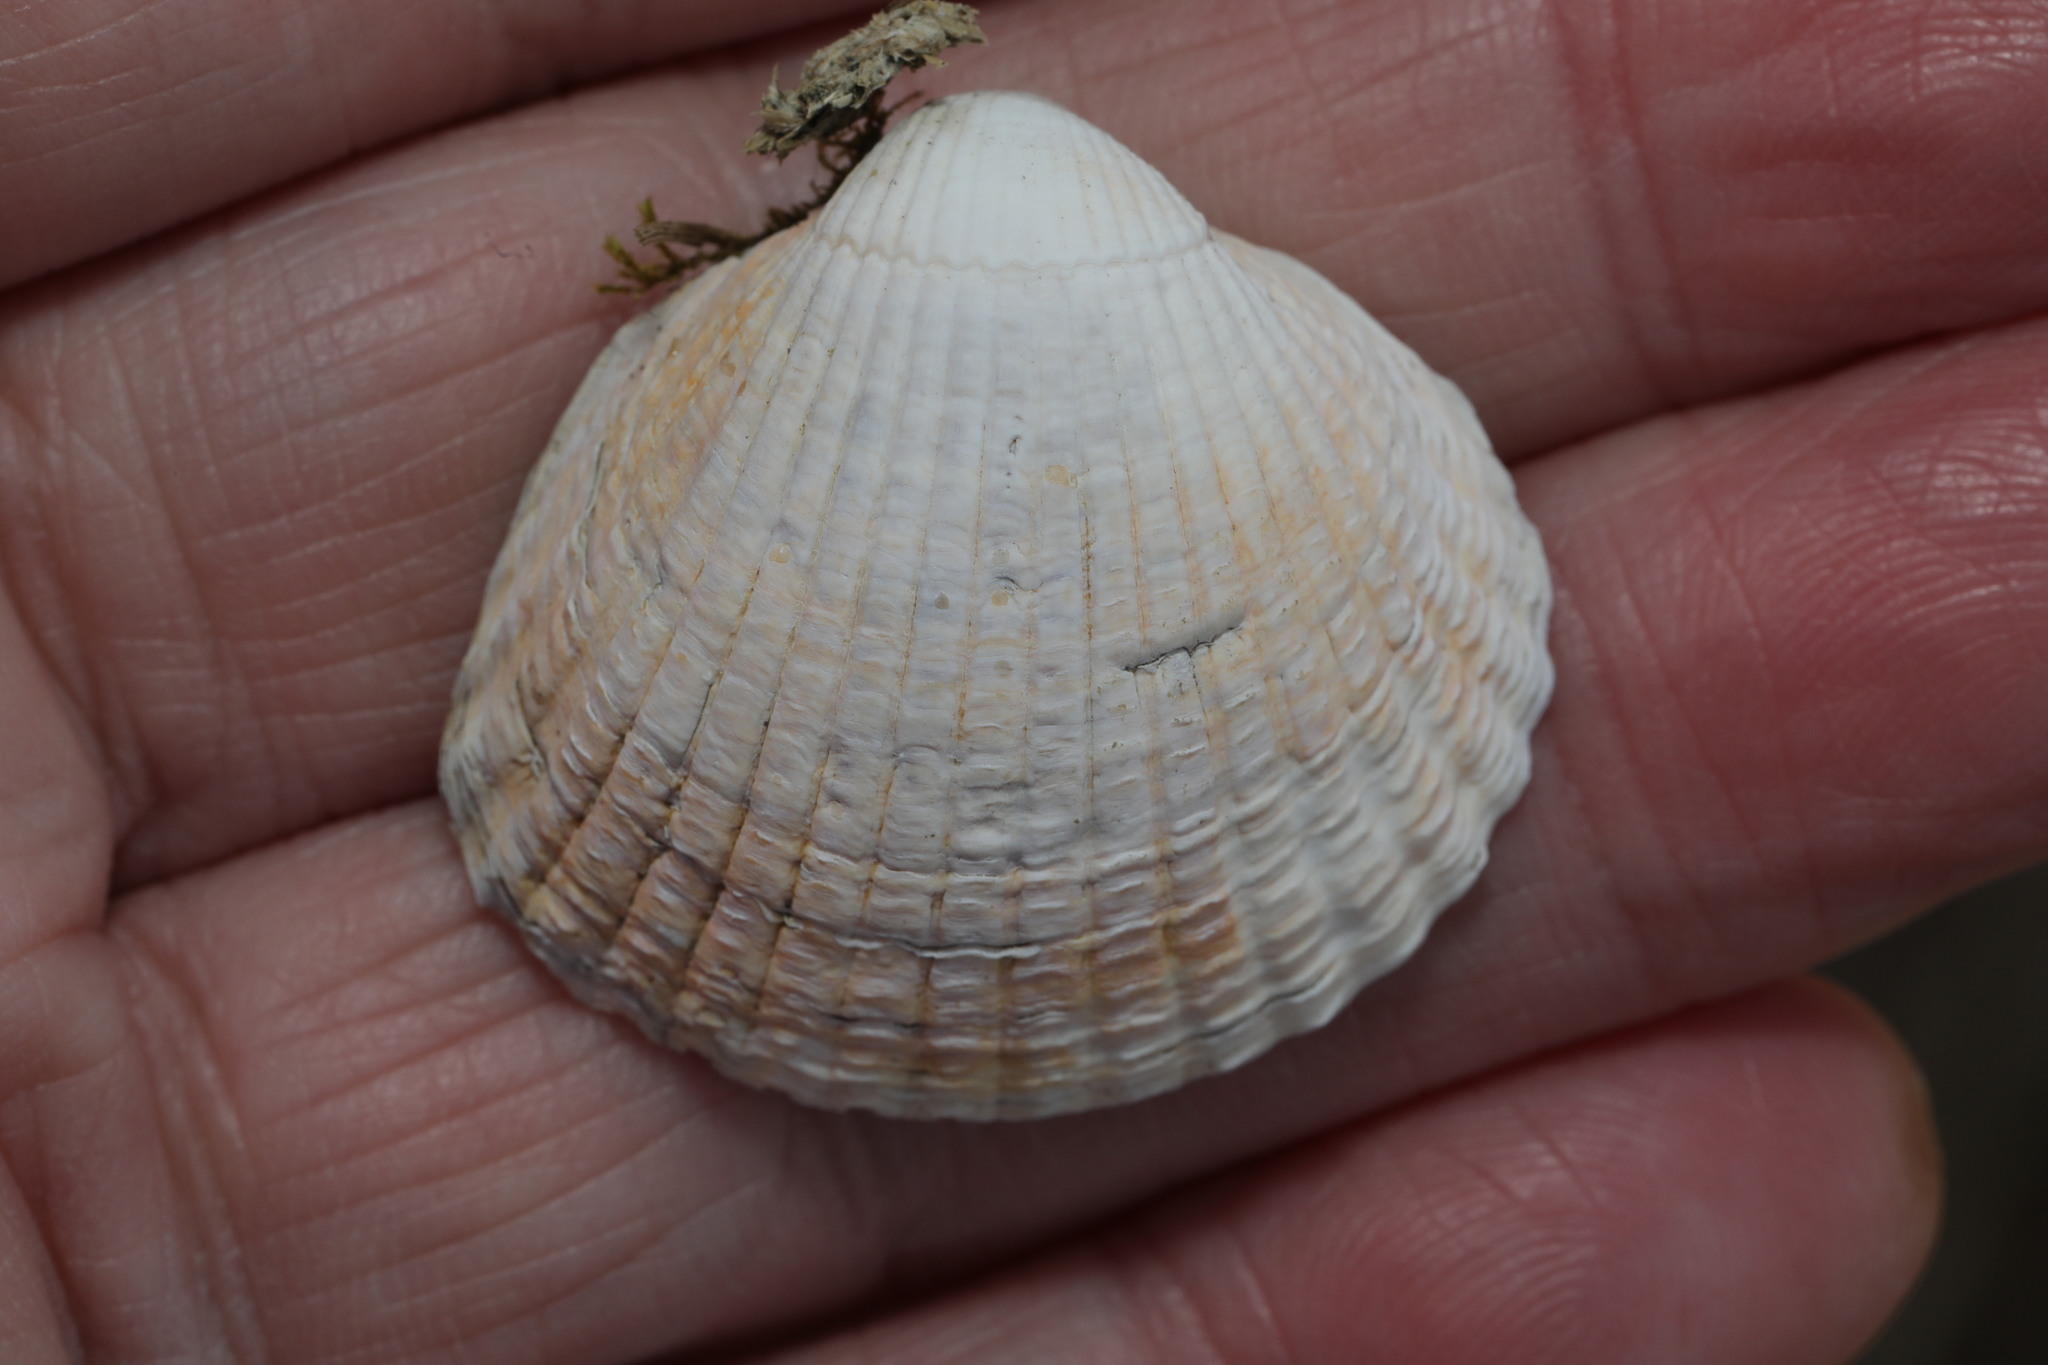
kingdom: Animalia
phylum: Mollusca
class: Bivalvia
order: Cardiida
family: Cardiidae
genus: Cerastoderma
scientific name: Cerastoderma edule
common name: Common cockle
